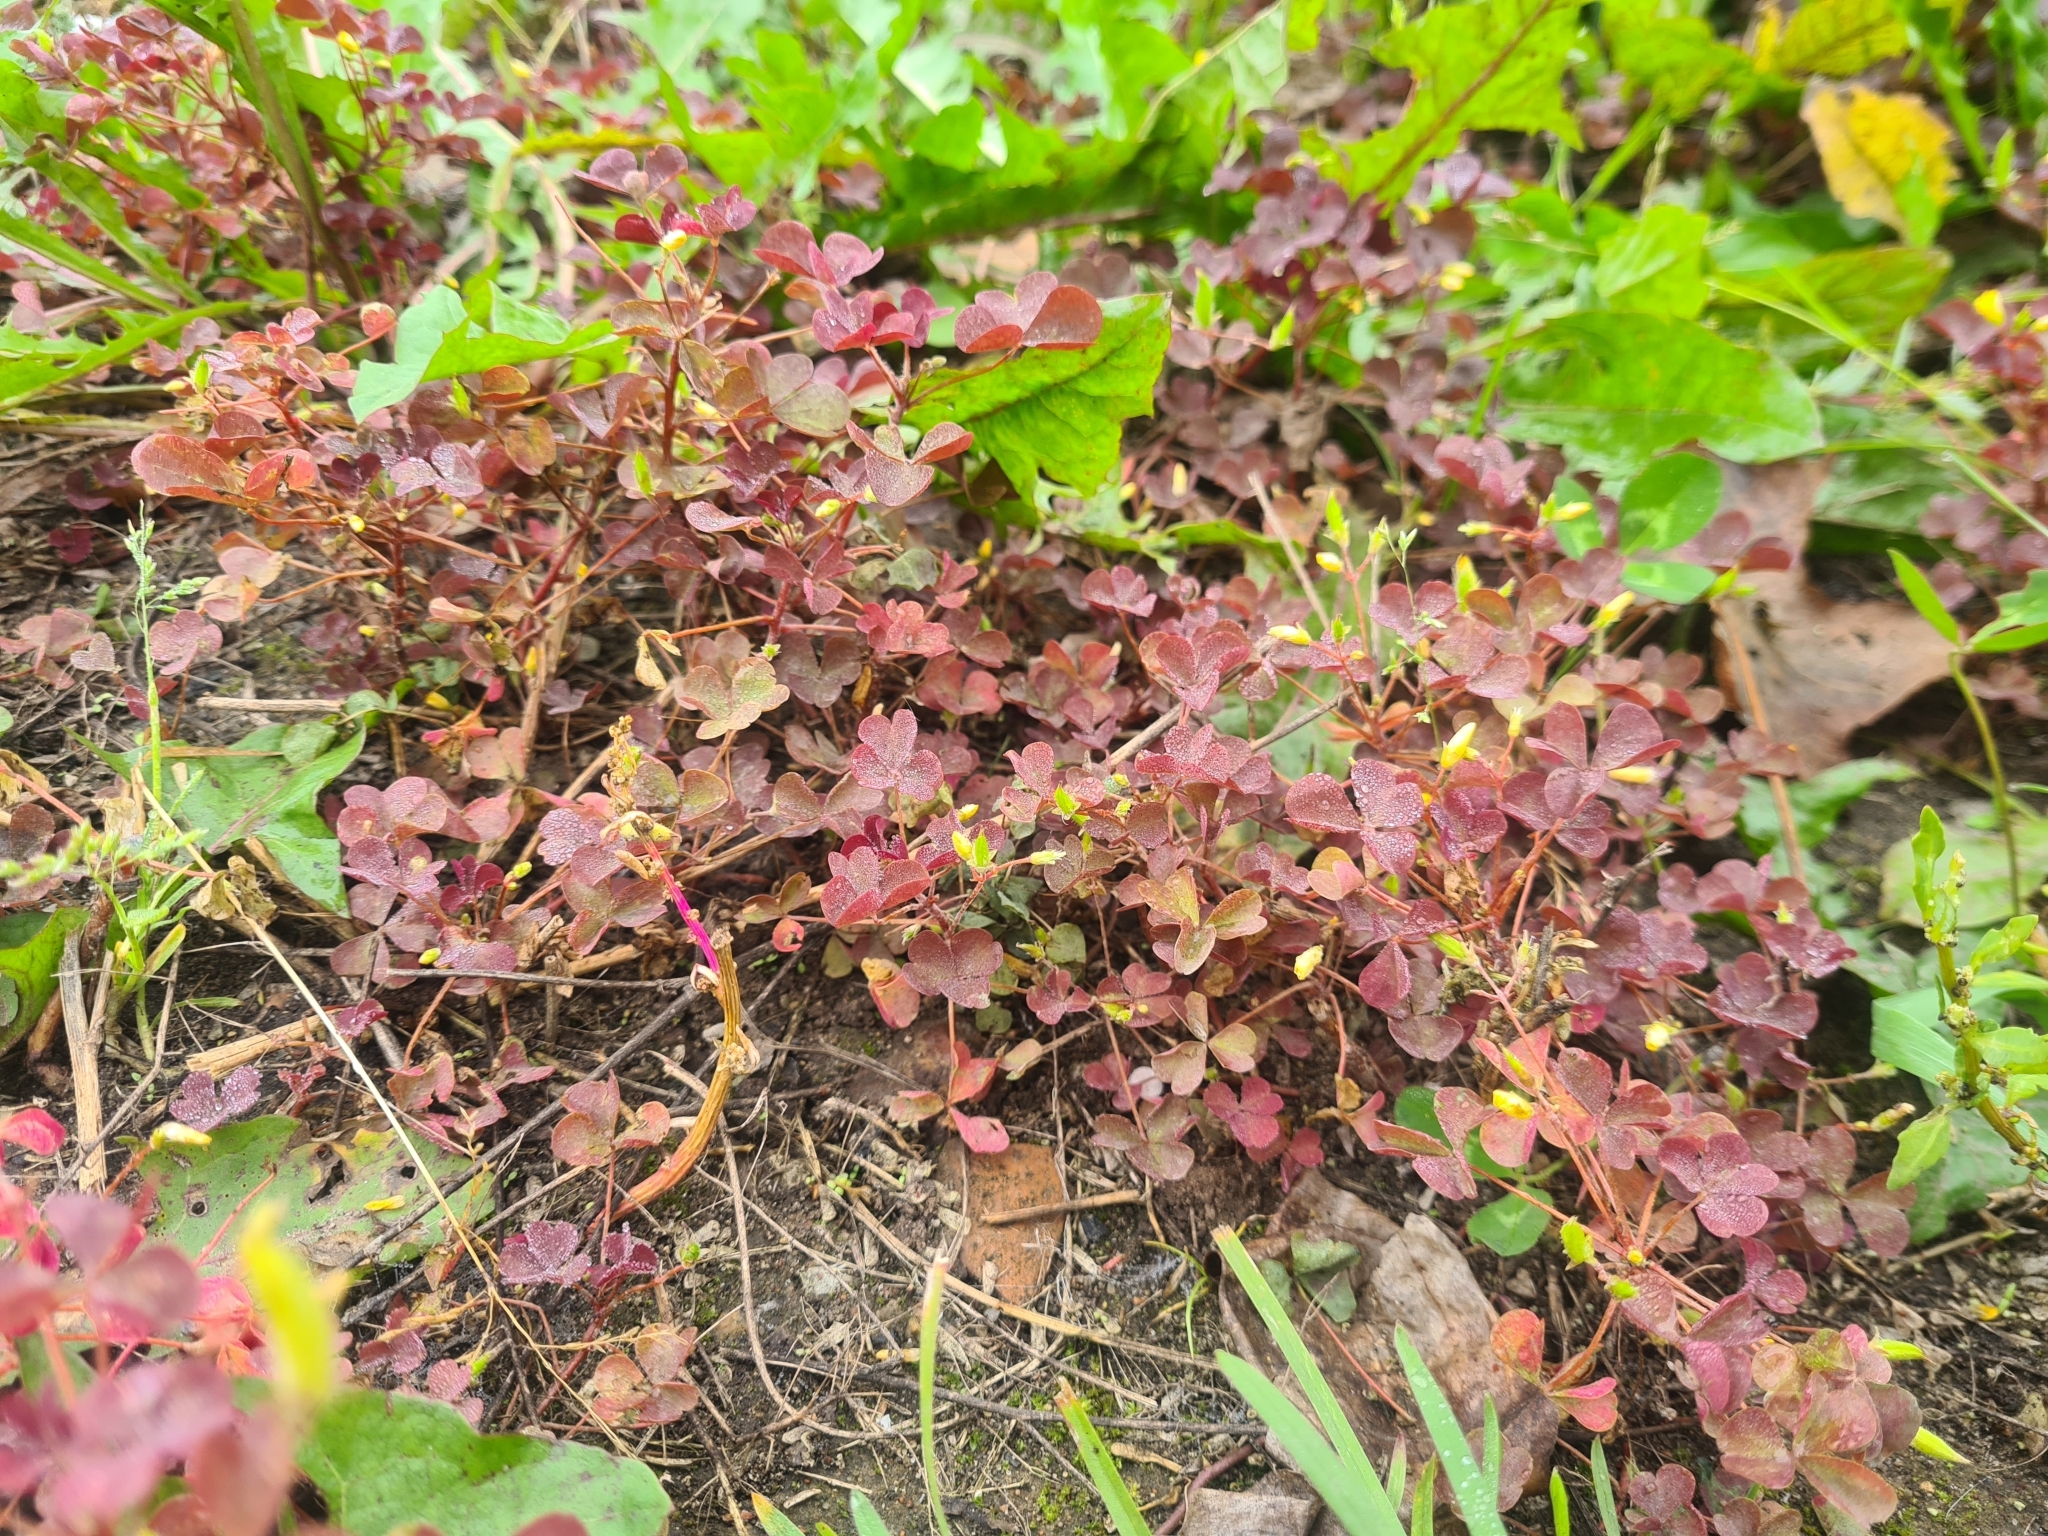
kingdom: Plantae
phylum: Tracheophyta
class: Magnoliopsida
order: Oxalidales
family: Oxalidaceae
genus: Oxalis
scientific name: Oxalis stricta
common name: Upright yellow-sorrel
